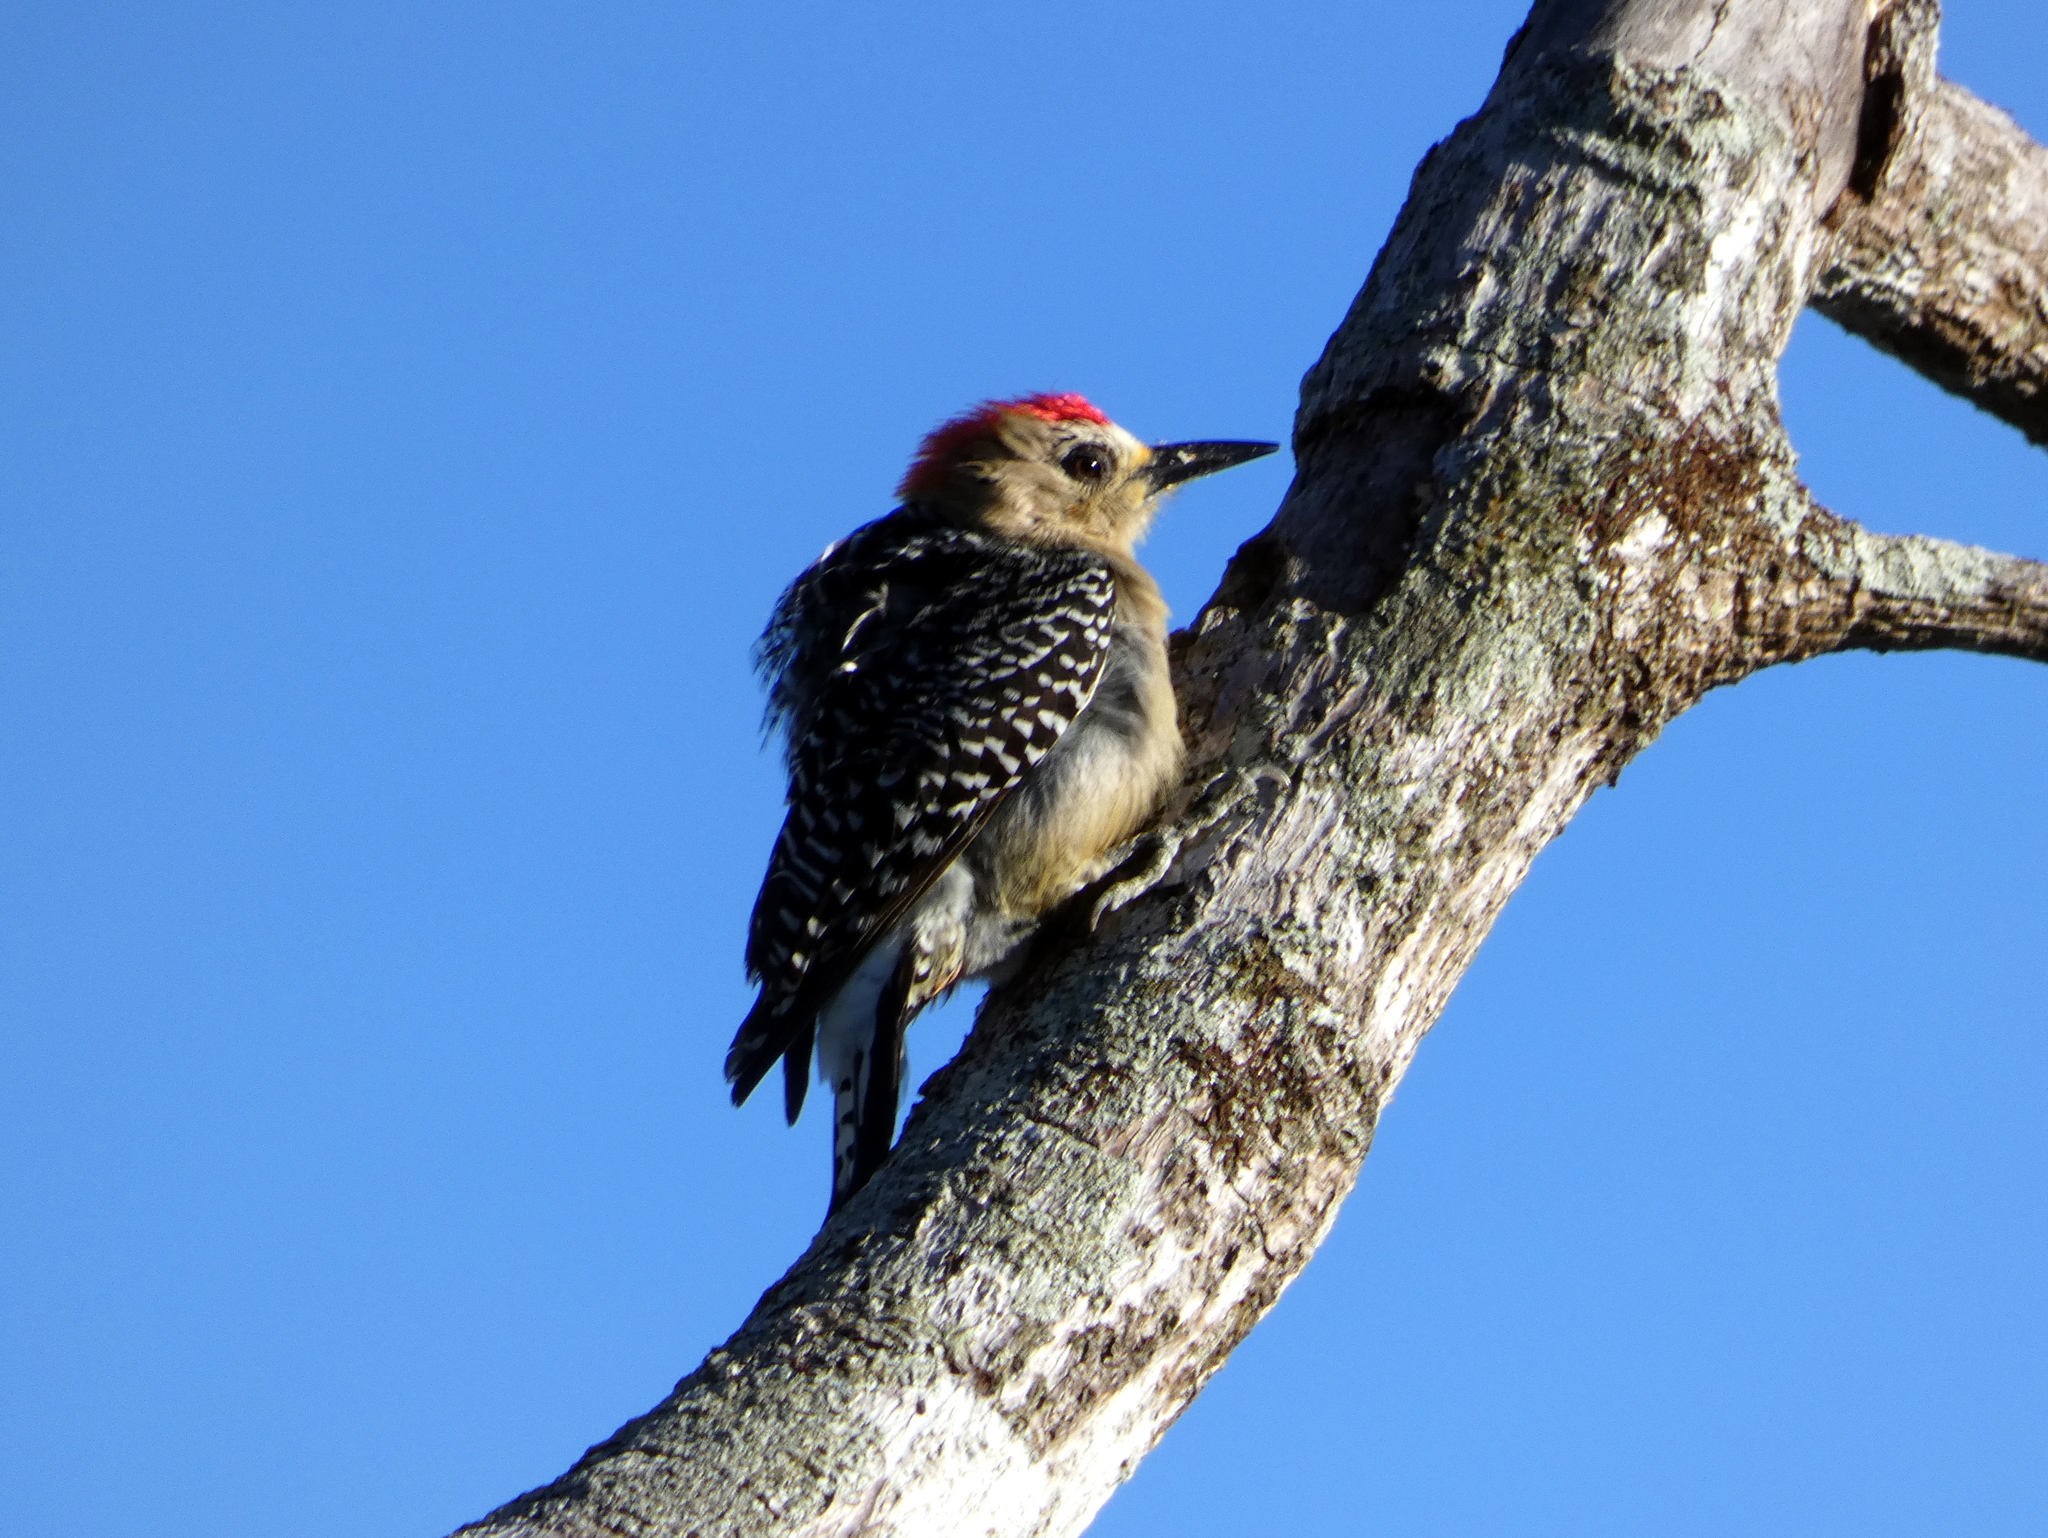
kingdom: Animalia
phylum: Chordata
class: Aves
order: Piciformes
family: Picidae
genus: Melanerpes
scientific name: Melanerpes rubricapillus
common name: Red-crowned woodpecker
